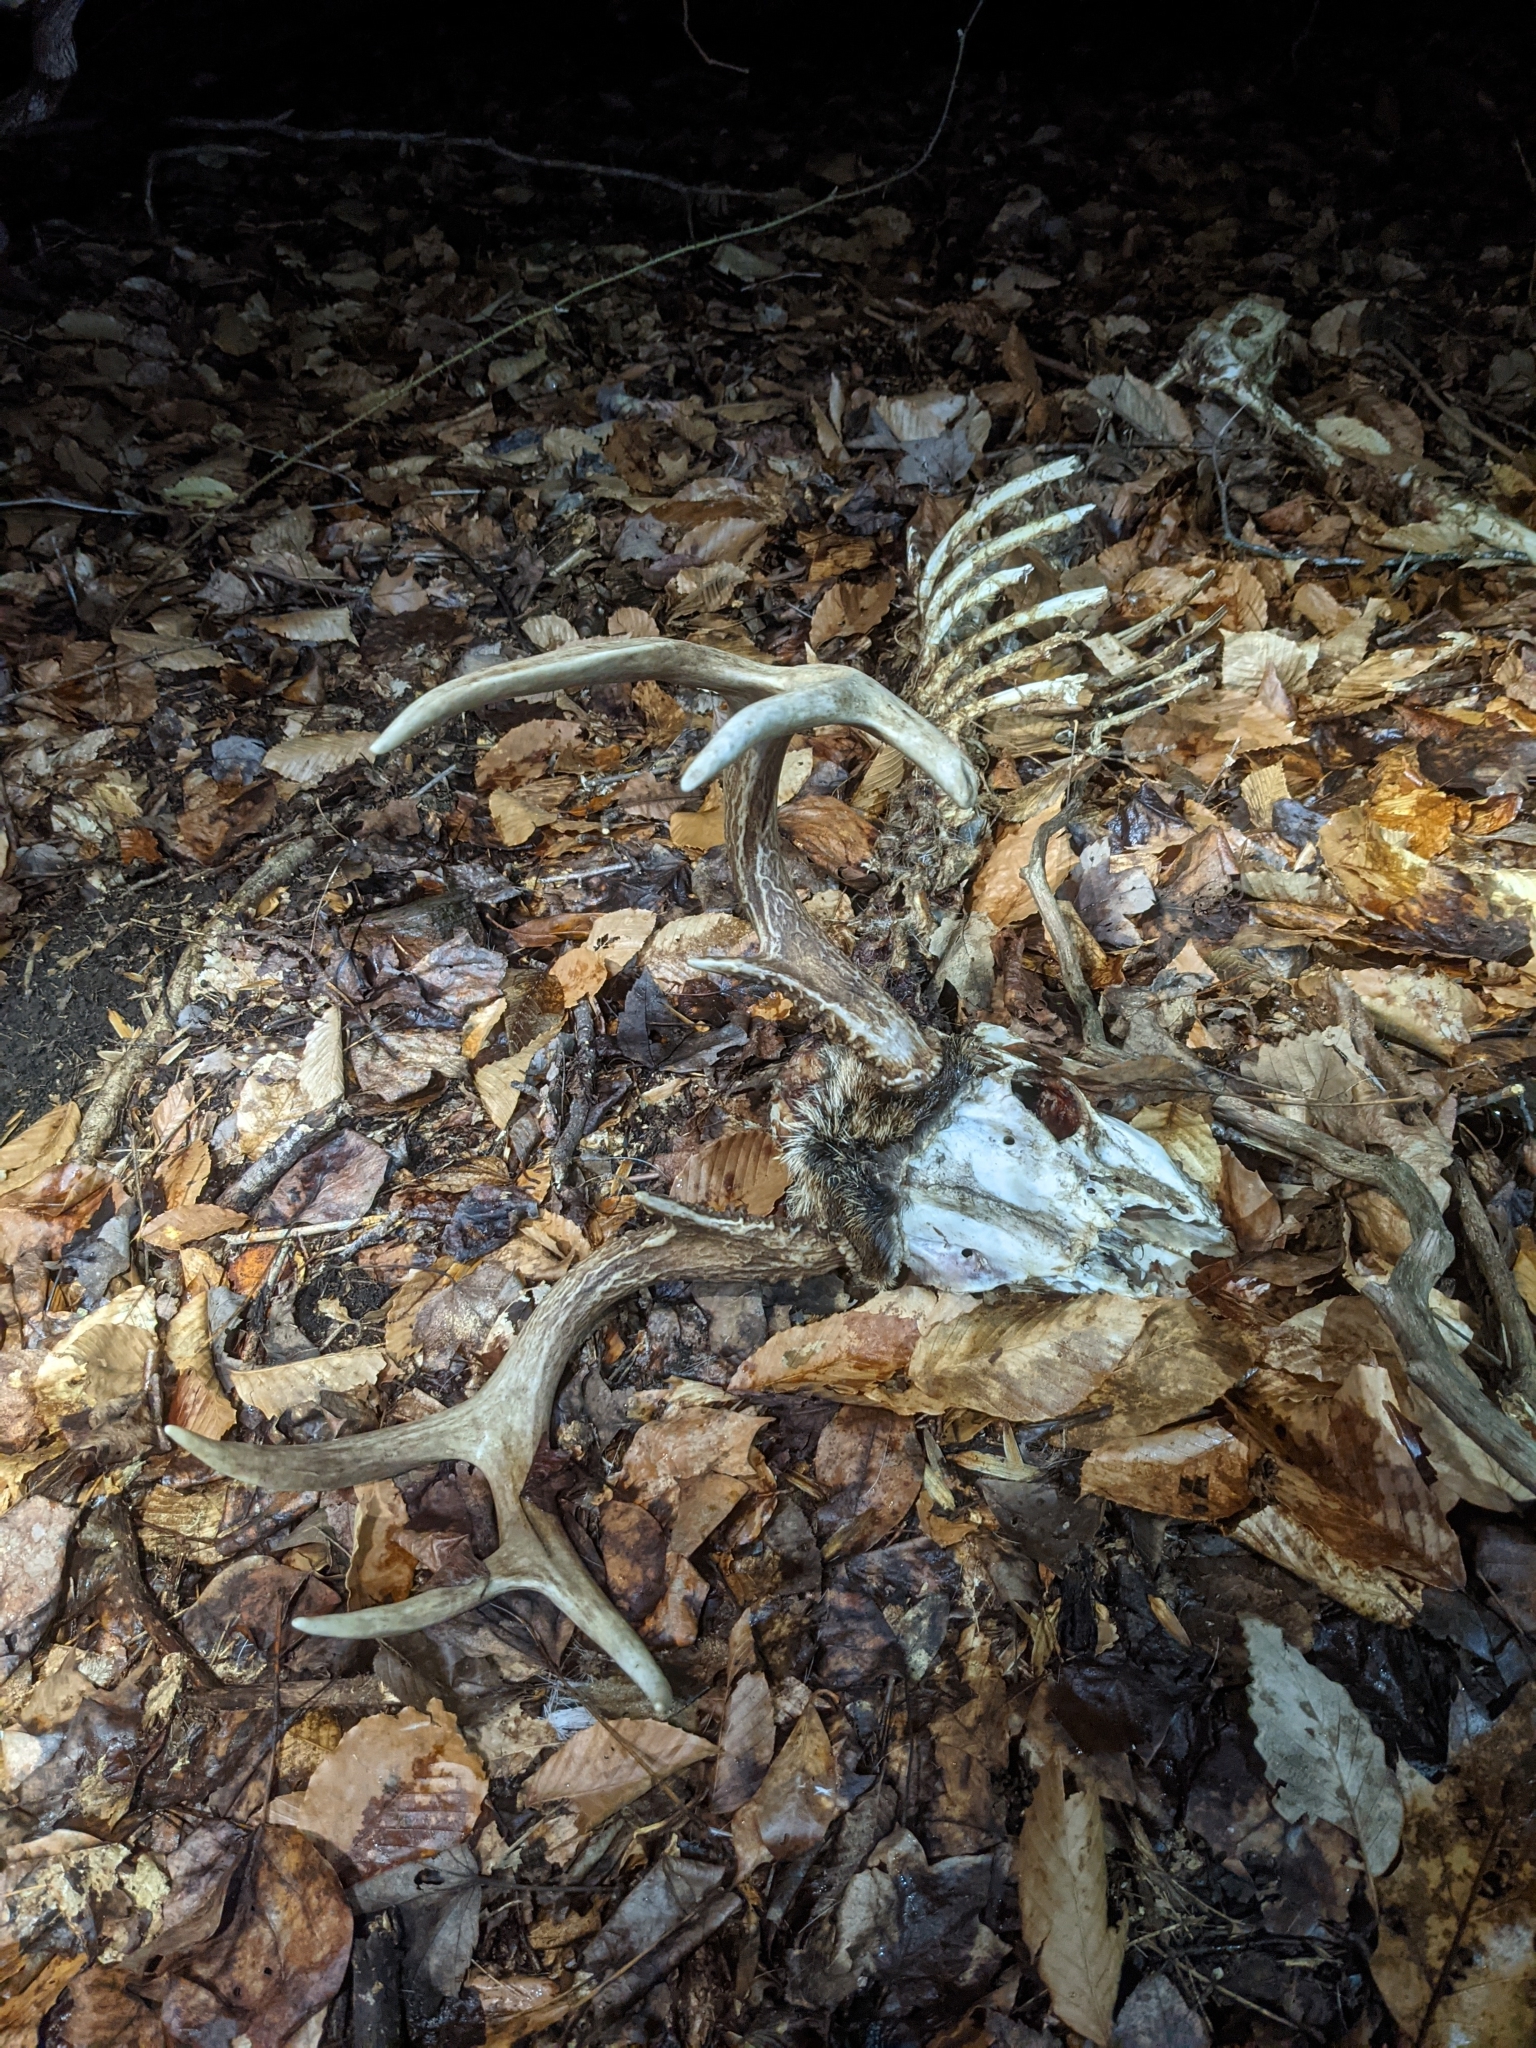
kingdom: Animalia
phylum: Chordata
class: Mammalia
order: Artiodactyla
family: Cervidae
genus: Odocoileus
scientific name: Odocoileus virginianus
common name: White-tailed deer
